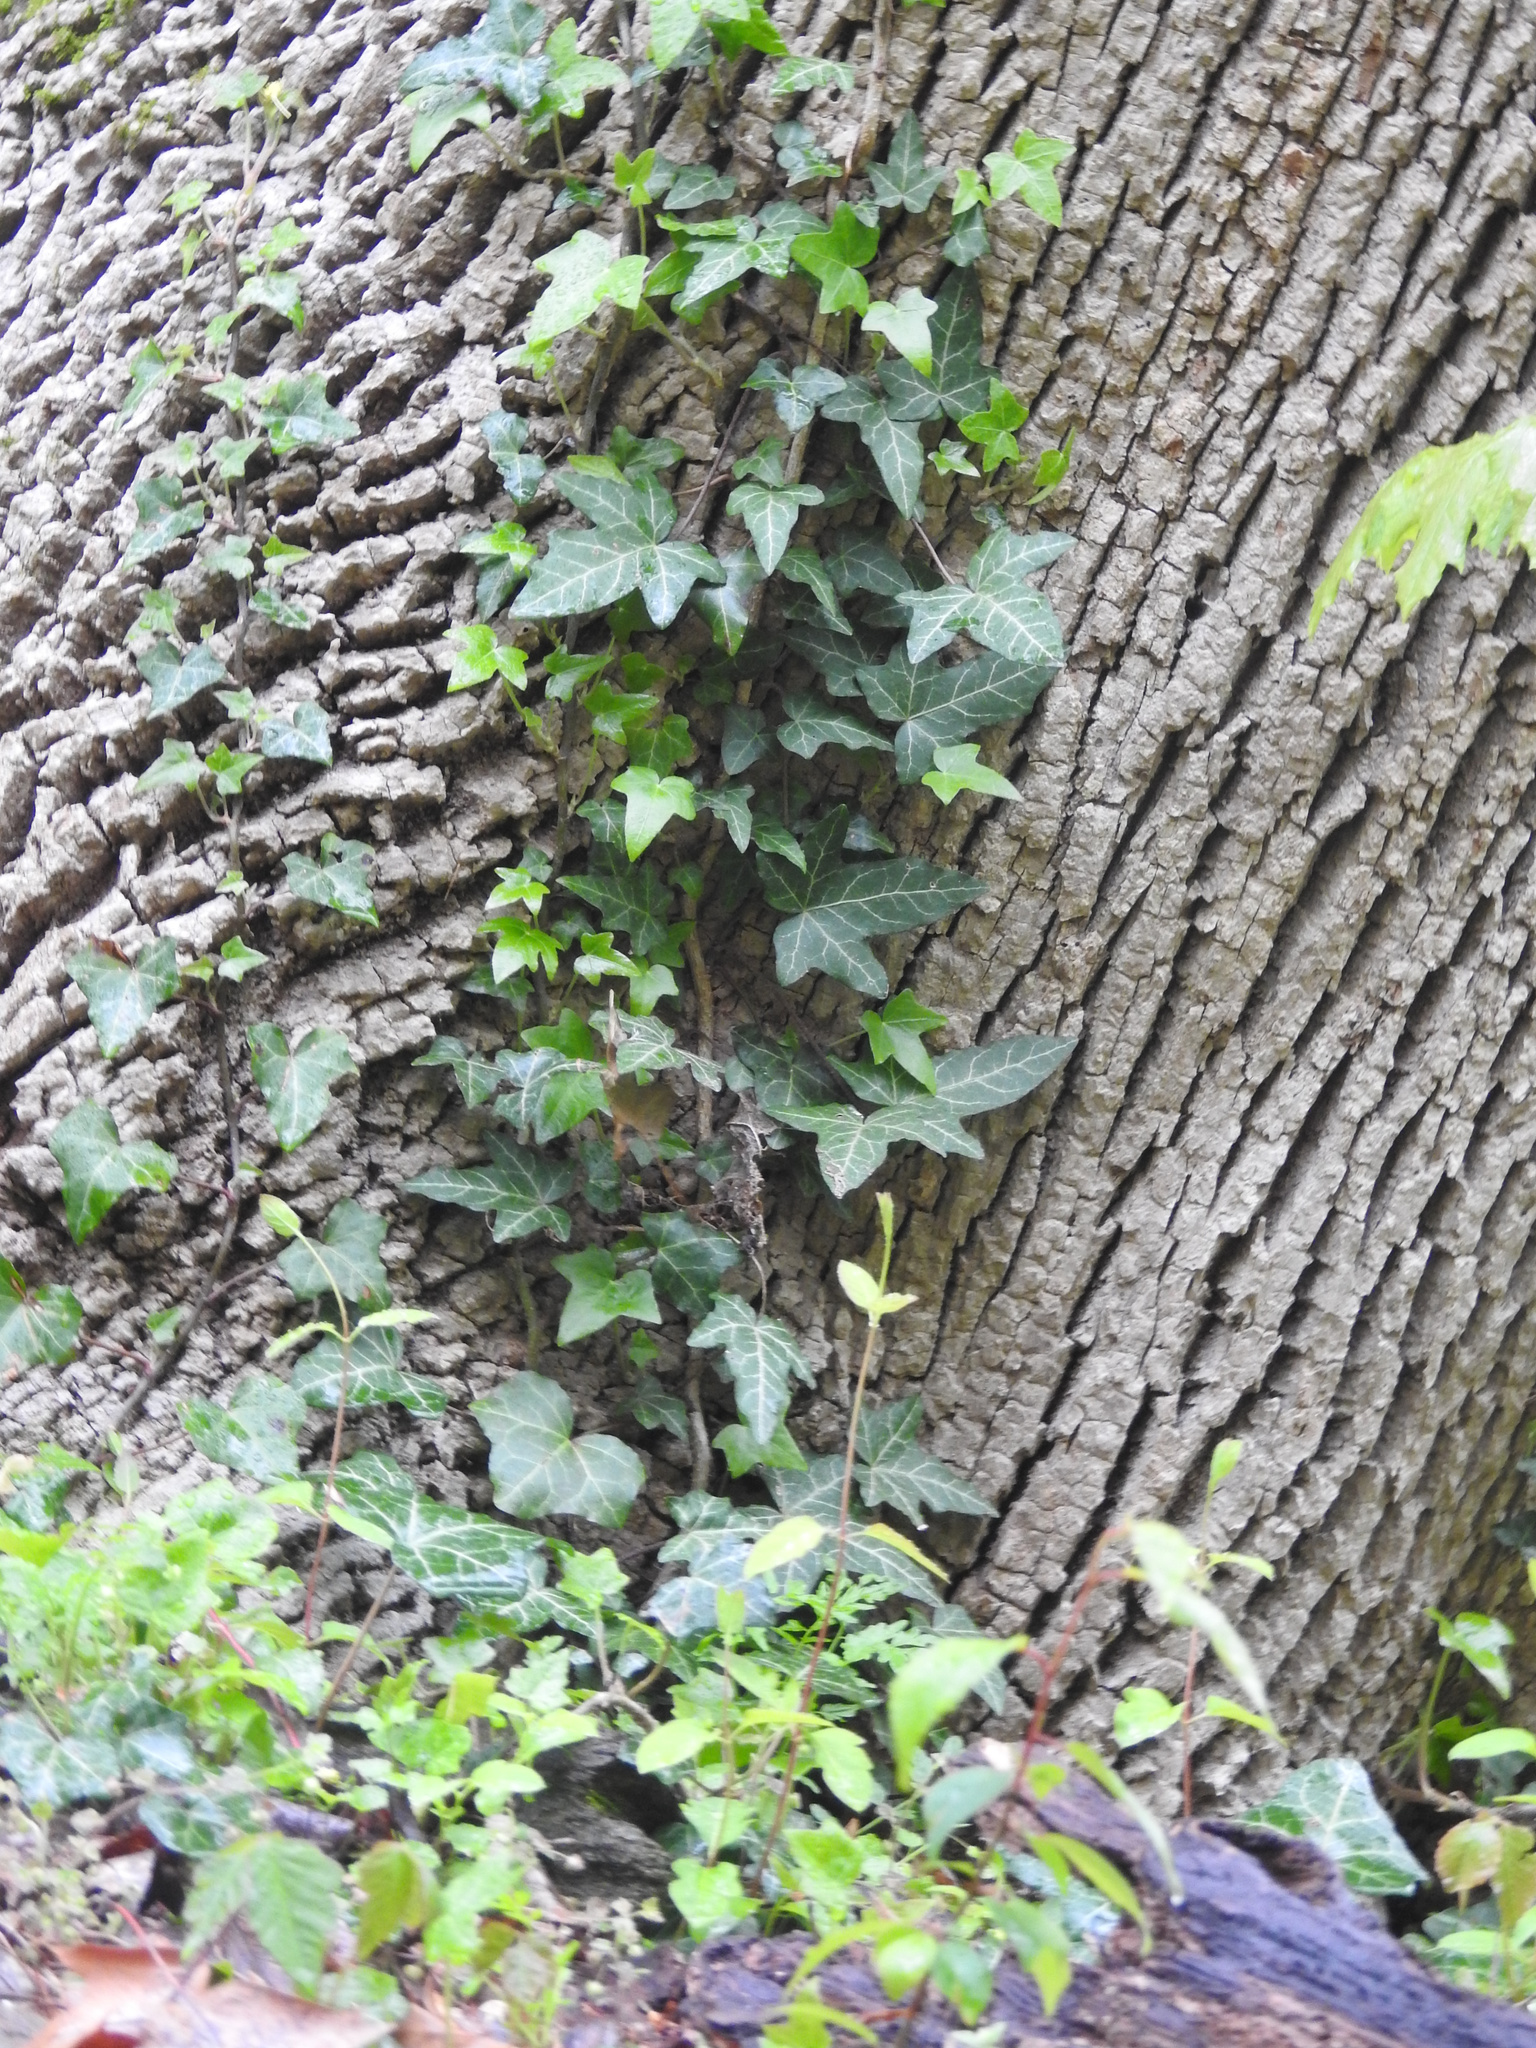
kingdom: Plantae
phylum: Tracheophyta
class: Magnoliopsida
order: Apiales
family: Araliaceae
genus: Hedera
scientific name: Hedera helix
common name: Ivy
